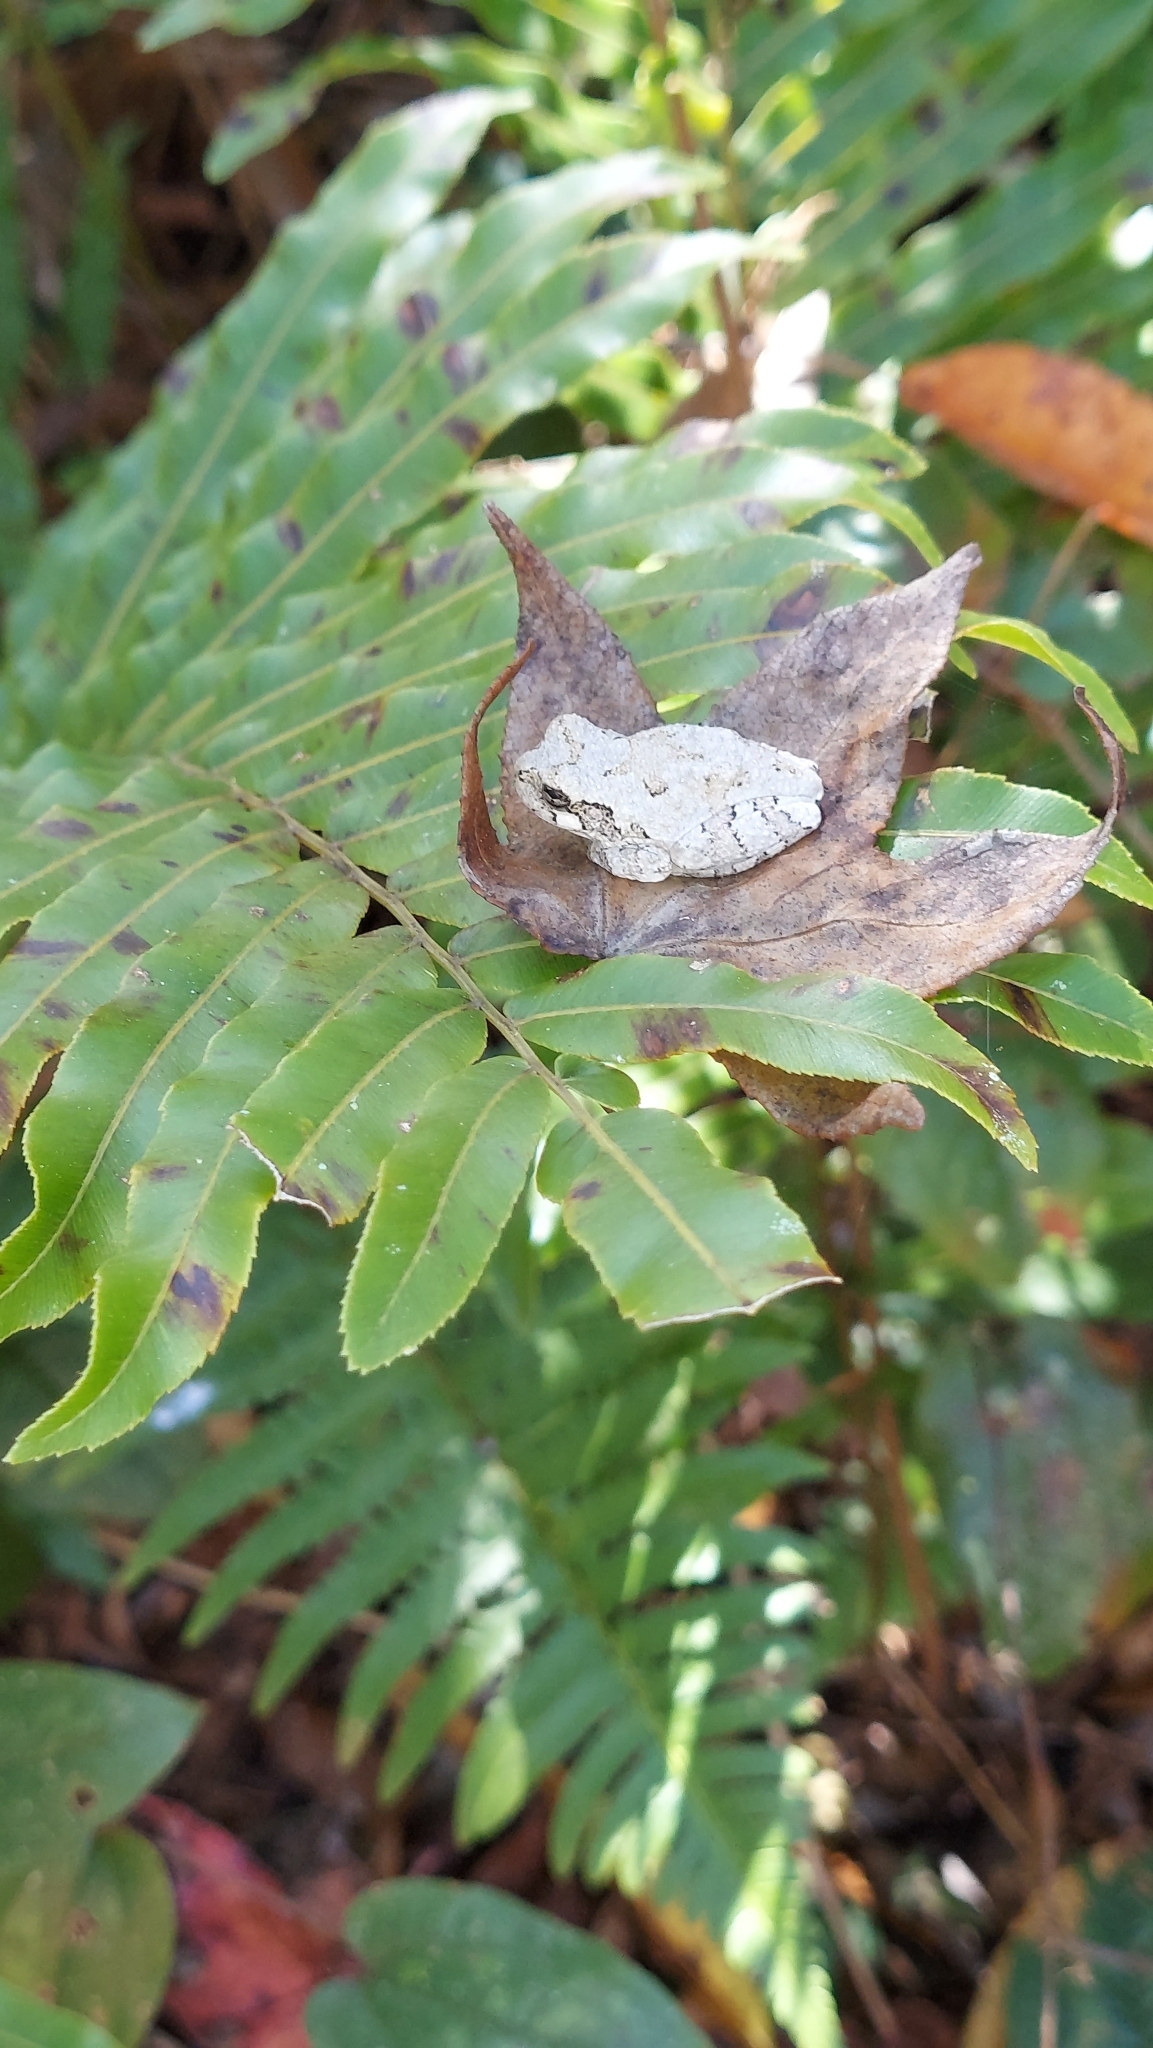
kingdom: Animalia
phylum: Chordata
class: Amphibia
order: Anura
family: Hylidae
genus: Dryophytes
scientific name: Dryophytes chrysoscelis
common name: Cope's gray treefrog
